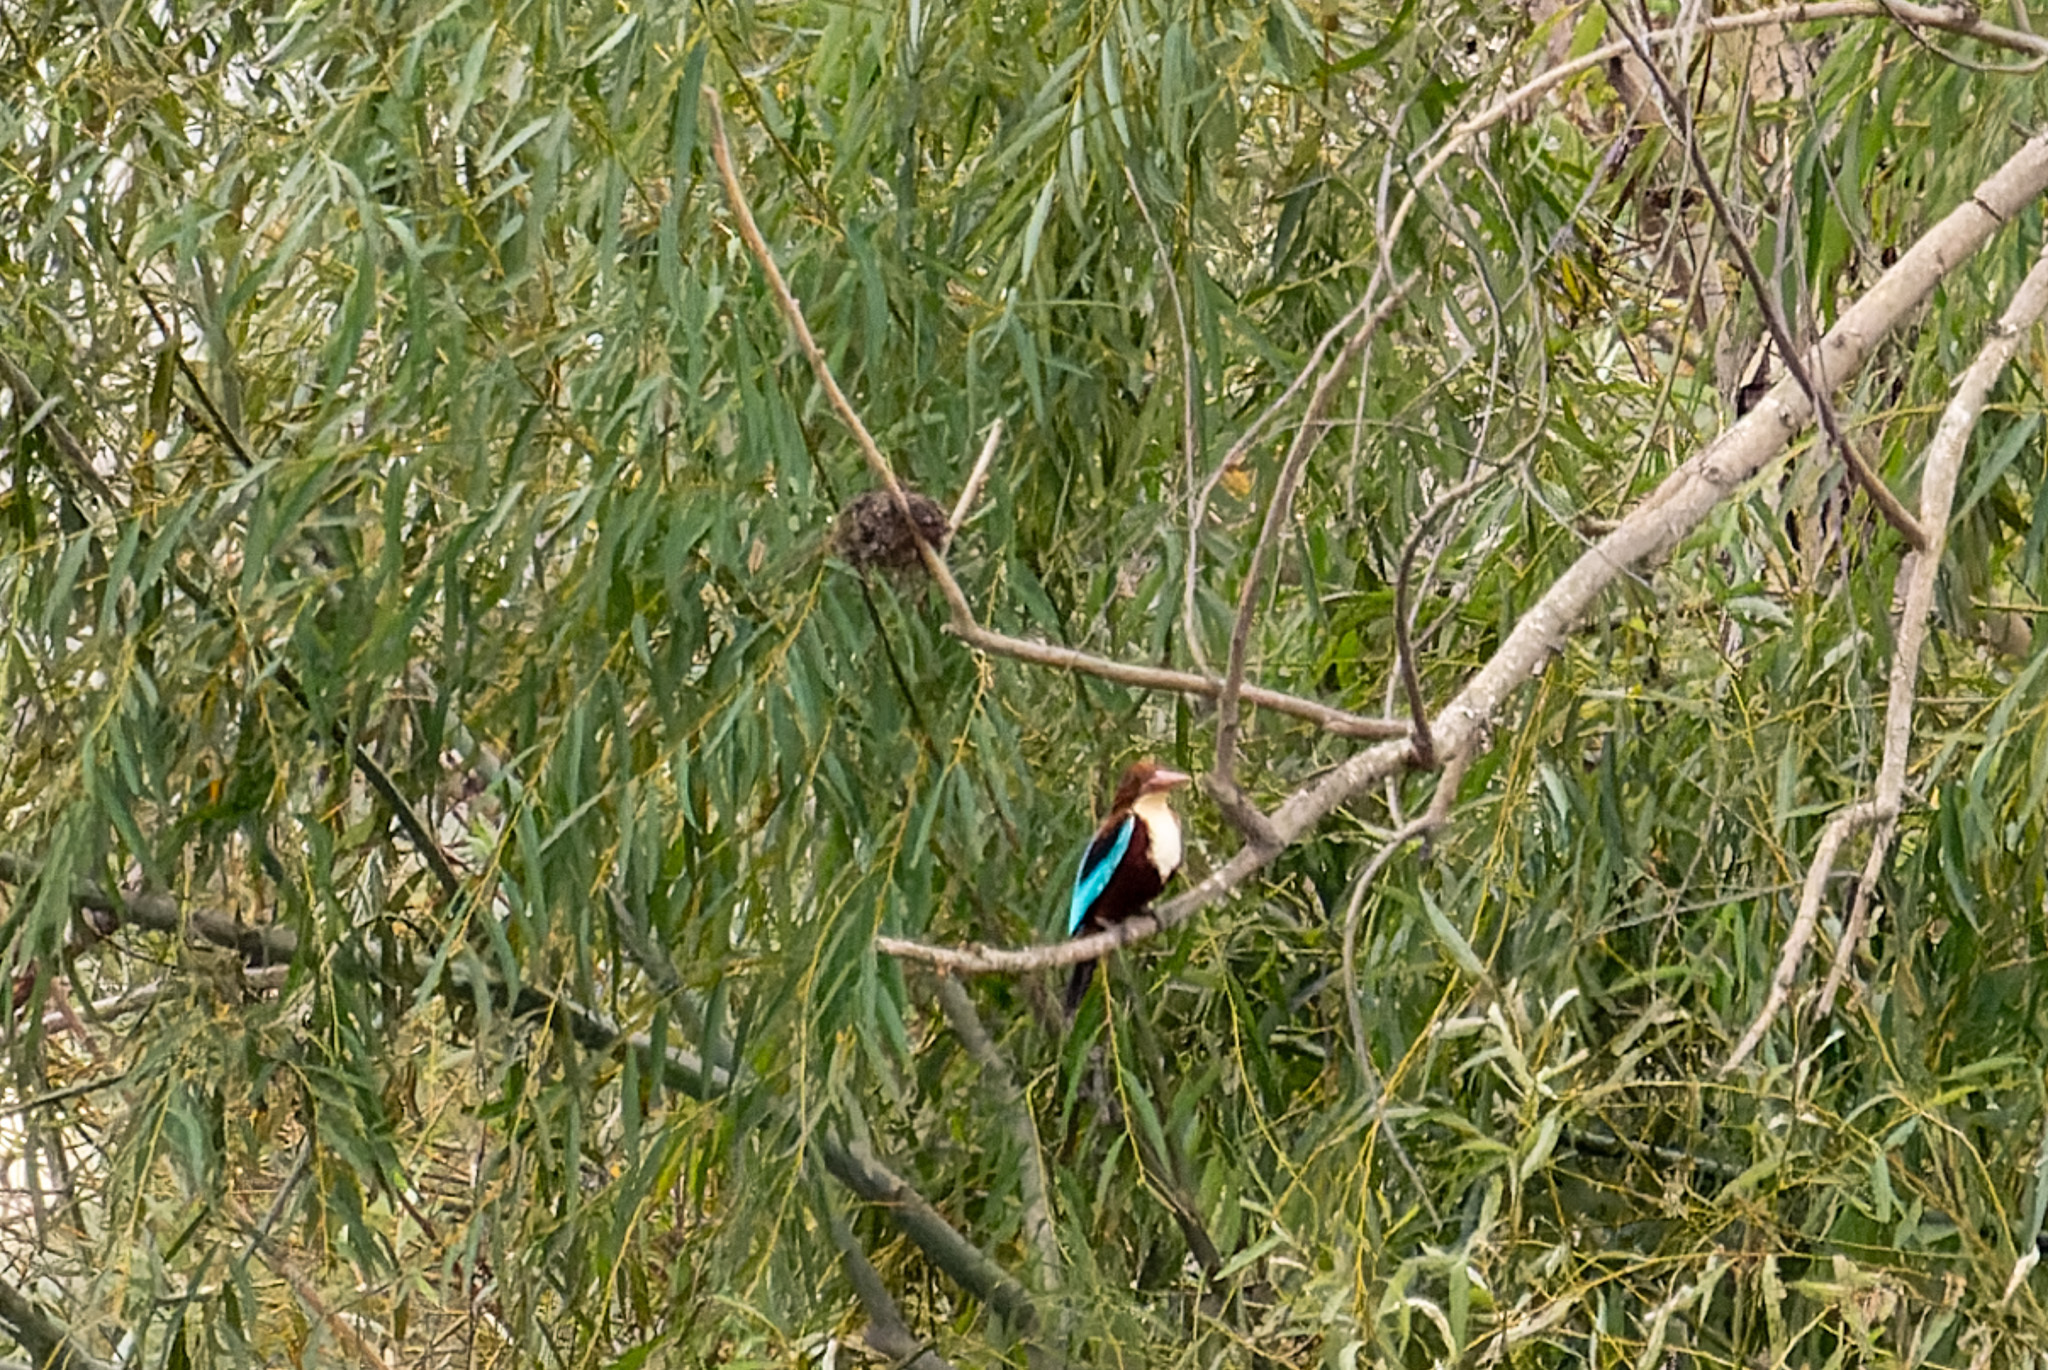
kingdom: Animalia
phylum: Chordata
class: Aves
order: Coraciiformes
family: Alcedinidae
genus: Halcyon
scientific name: Halcyon smyrnensis
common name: White-throated kingfisher
